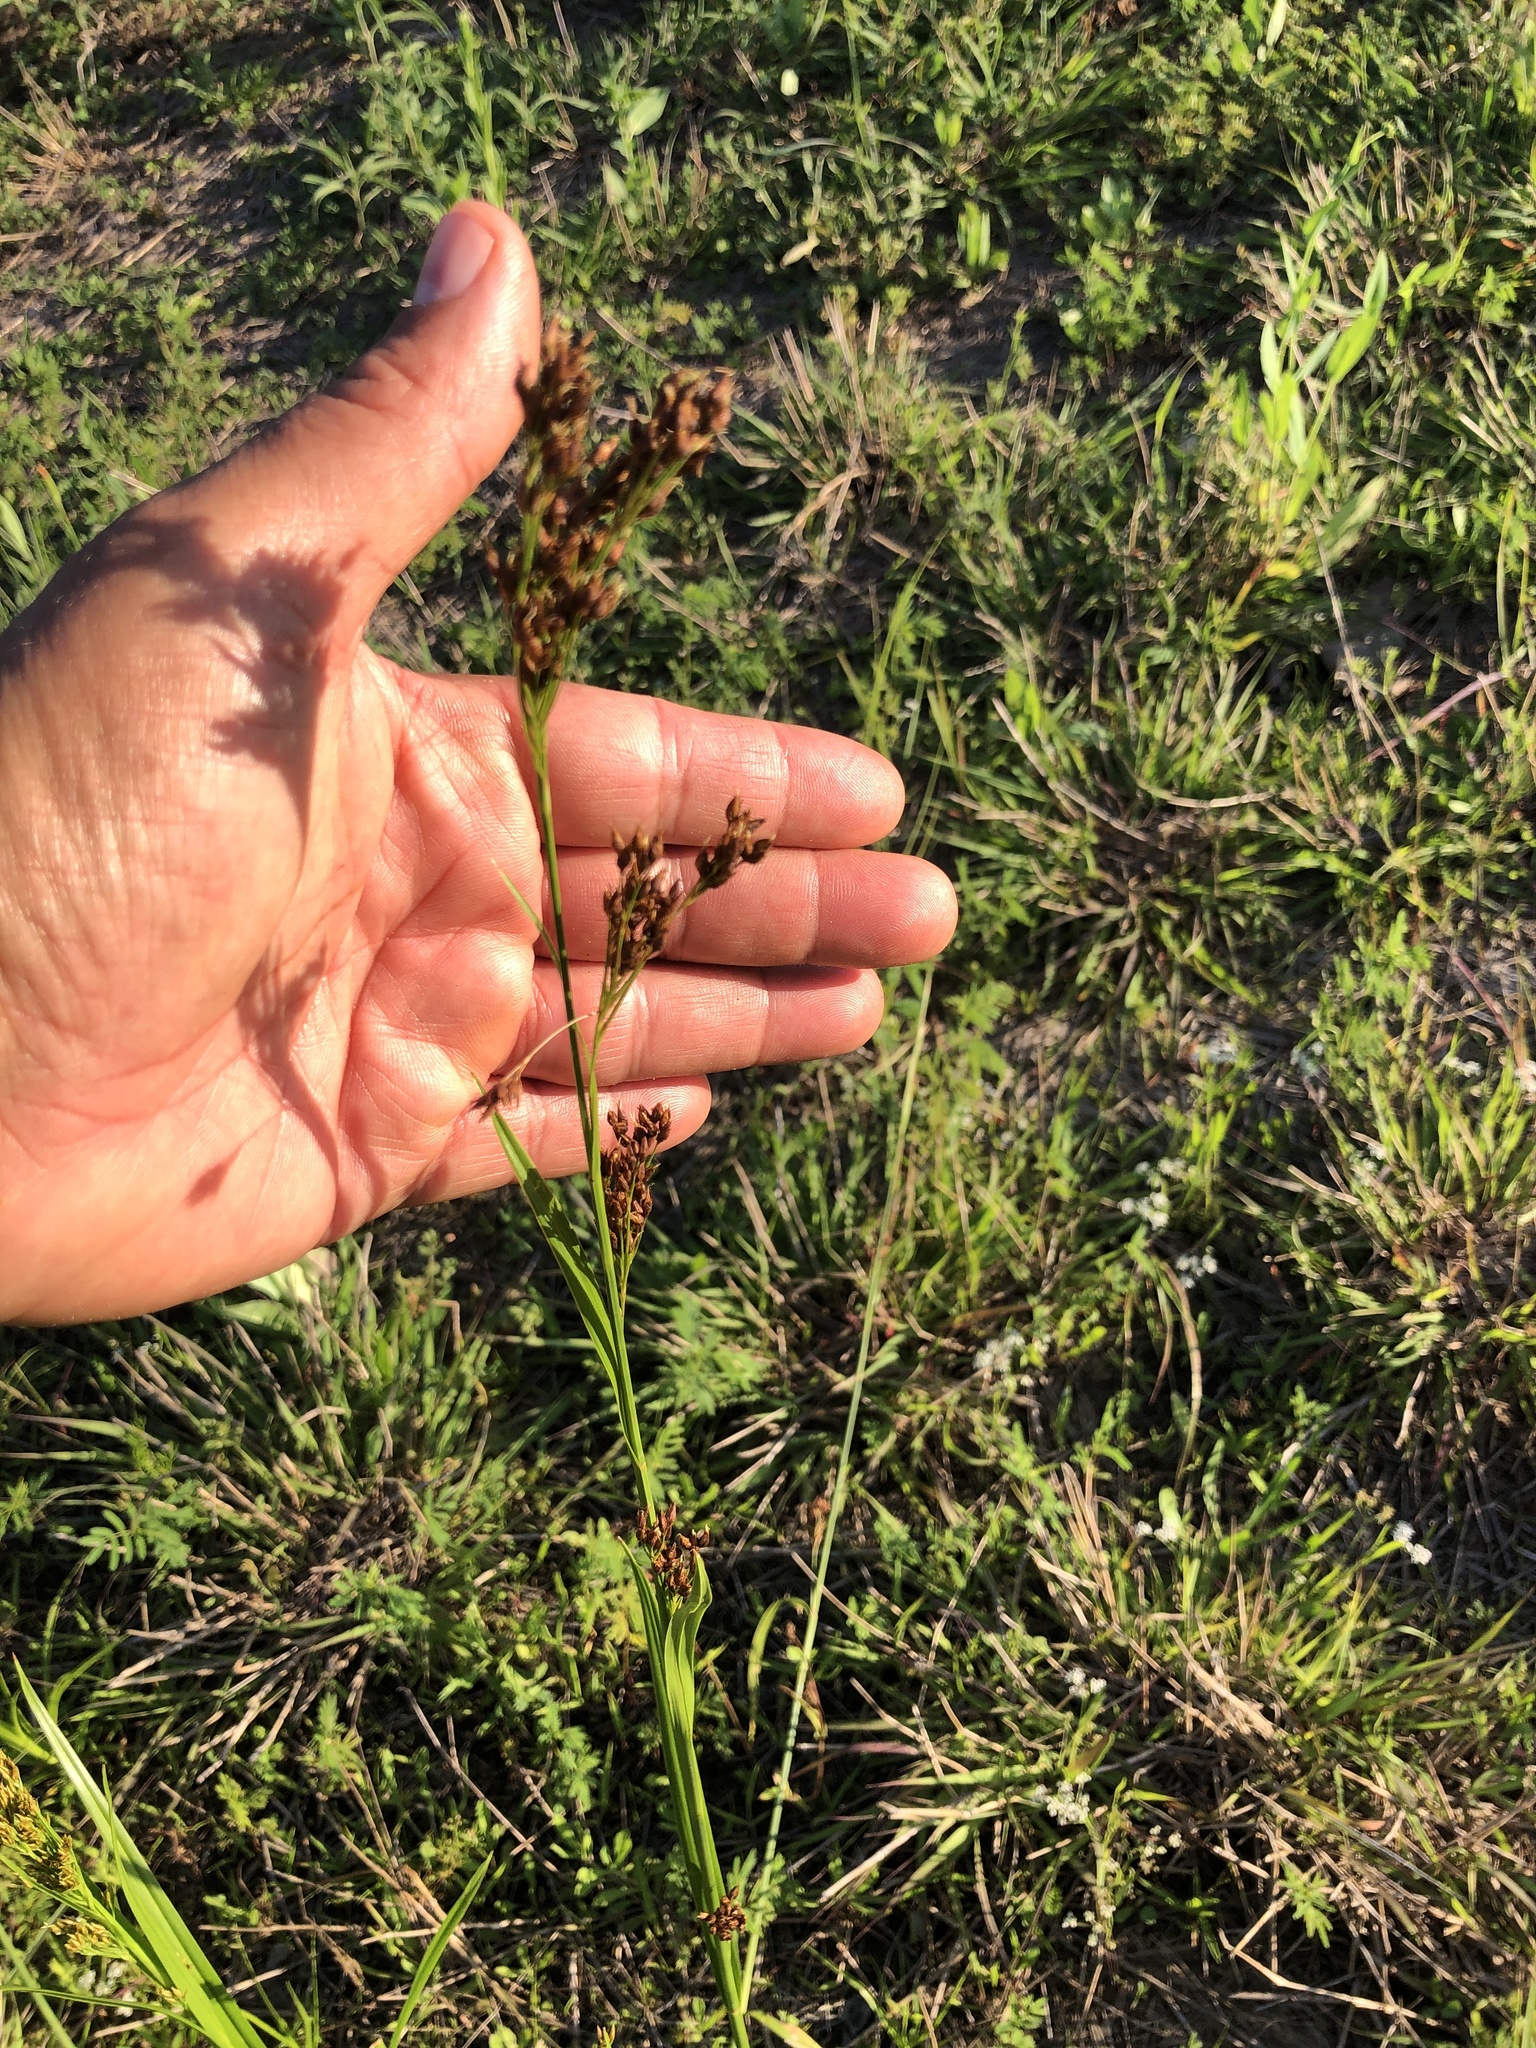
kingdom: Plantae
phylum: Tracheophyta
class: Liliopsida
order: Poales
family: Cyperaceae
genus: Rhynchospora
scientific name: Rhynchospora caduca
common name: Anglestem beaksedge
